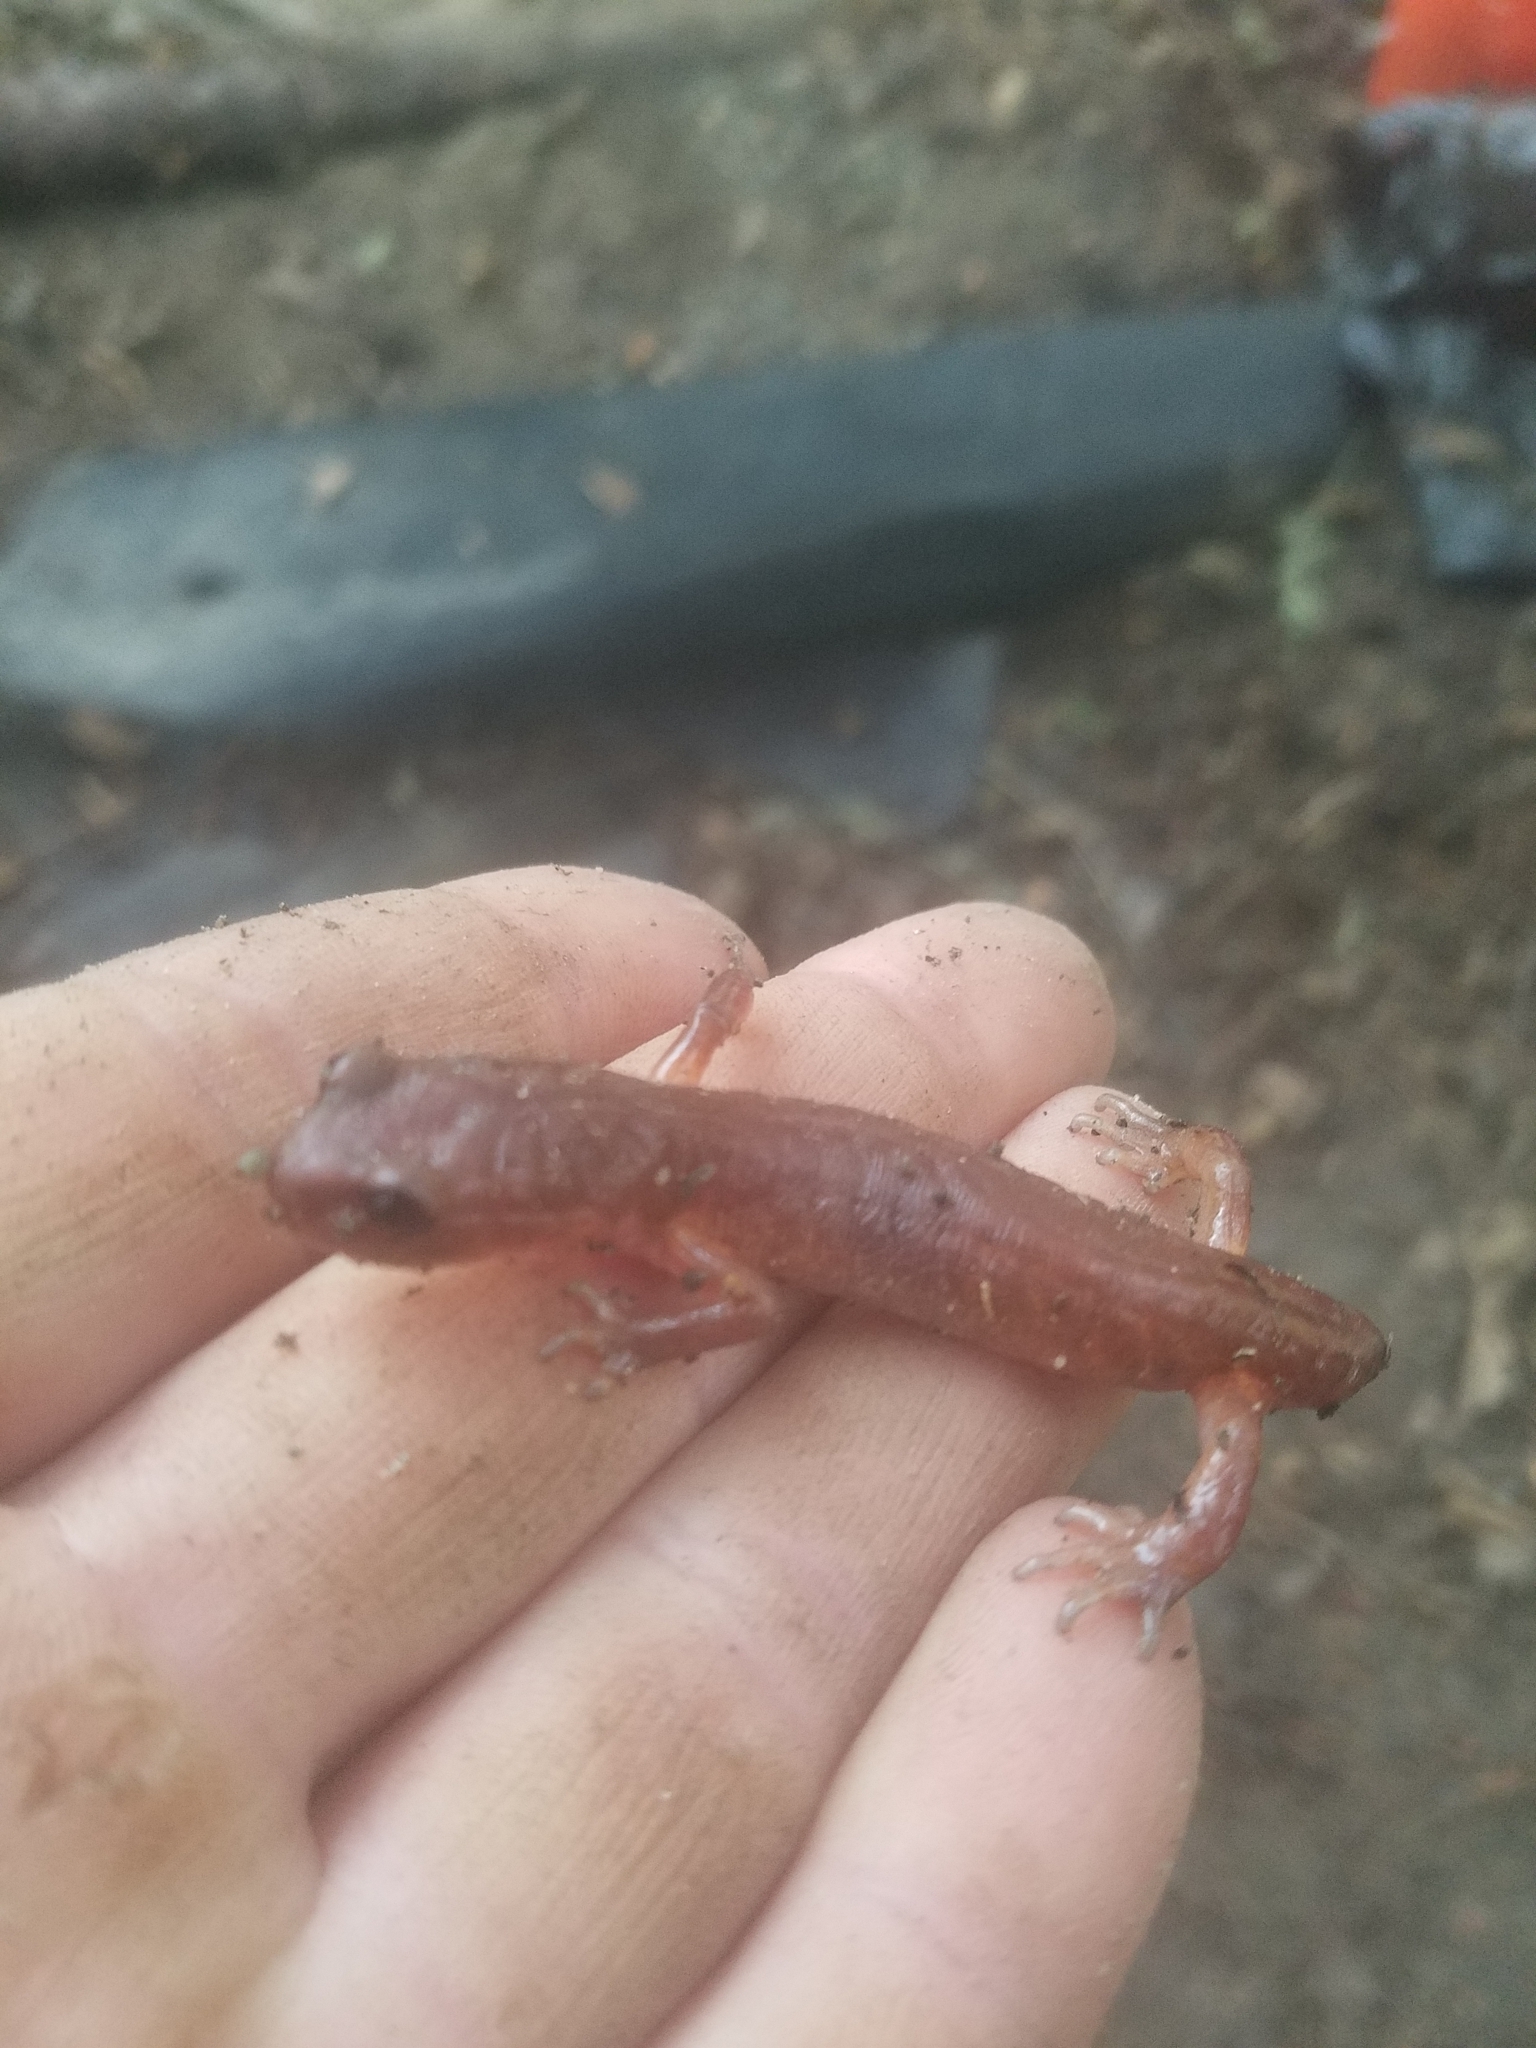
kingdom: Animalia
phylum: Chordata
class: Amphibia
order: Caudata
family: Plethodontidae
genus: Ensatina
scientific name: Ensatina eschscholtzii
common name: Ensatina
